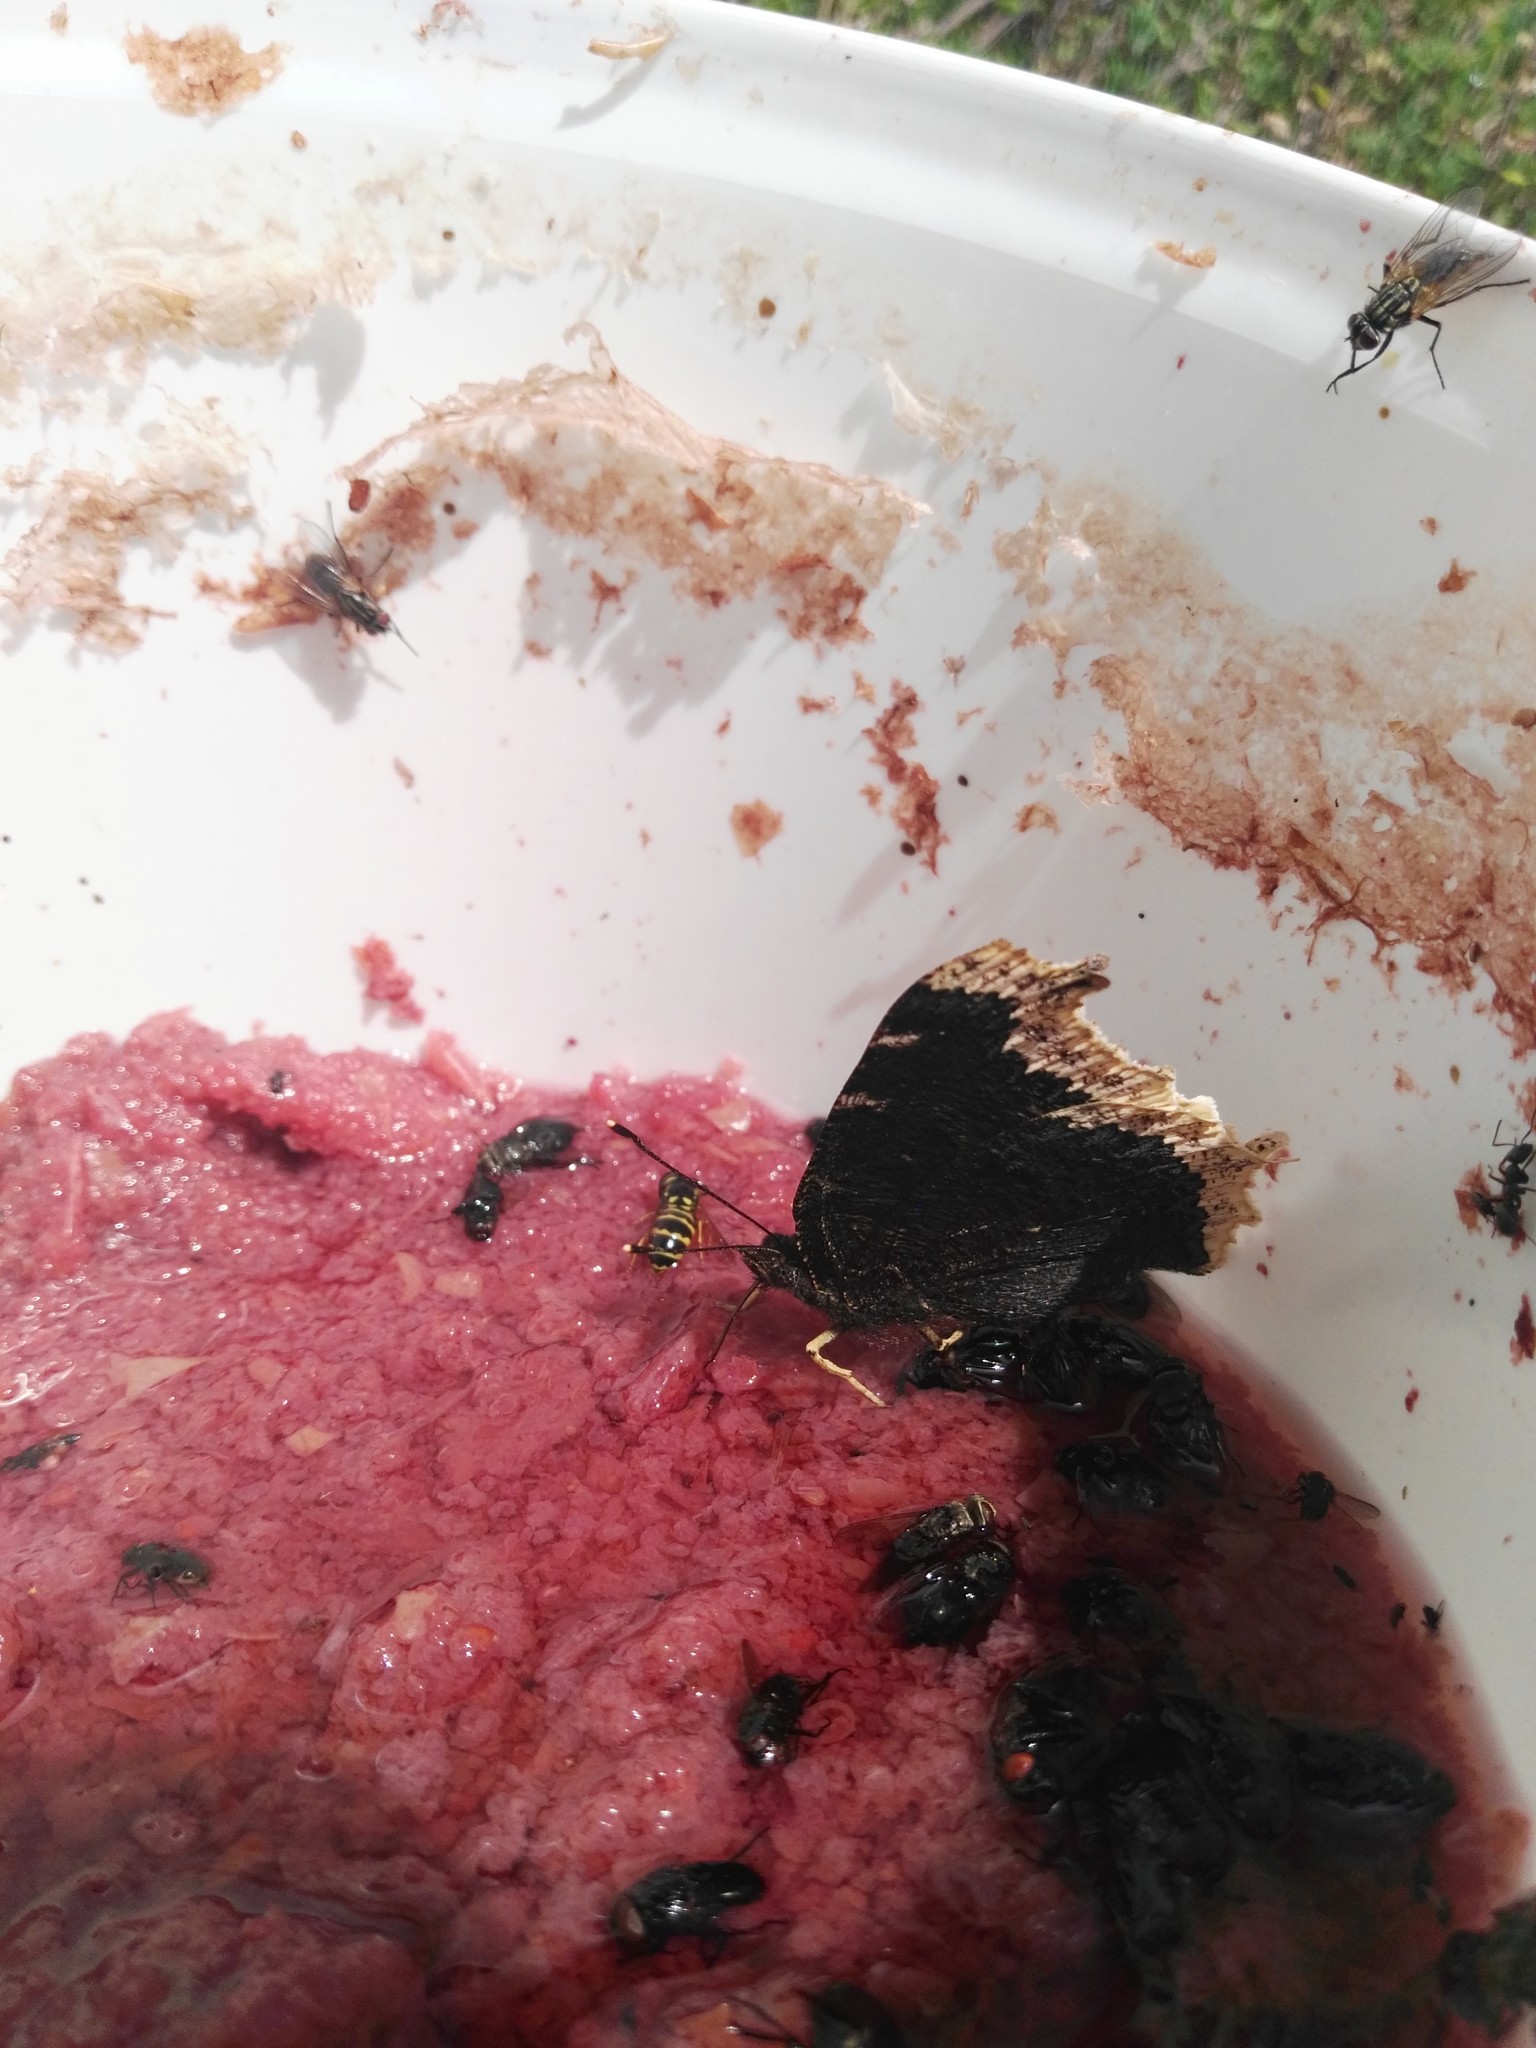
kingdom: Animalia
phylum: Arthropoda
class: Insecta
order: Lepidoptera
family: Nymphalidae
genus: Nymphalis
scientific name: Nymphalis antiopa
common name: Camberwell beauty
